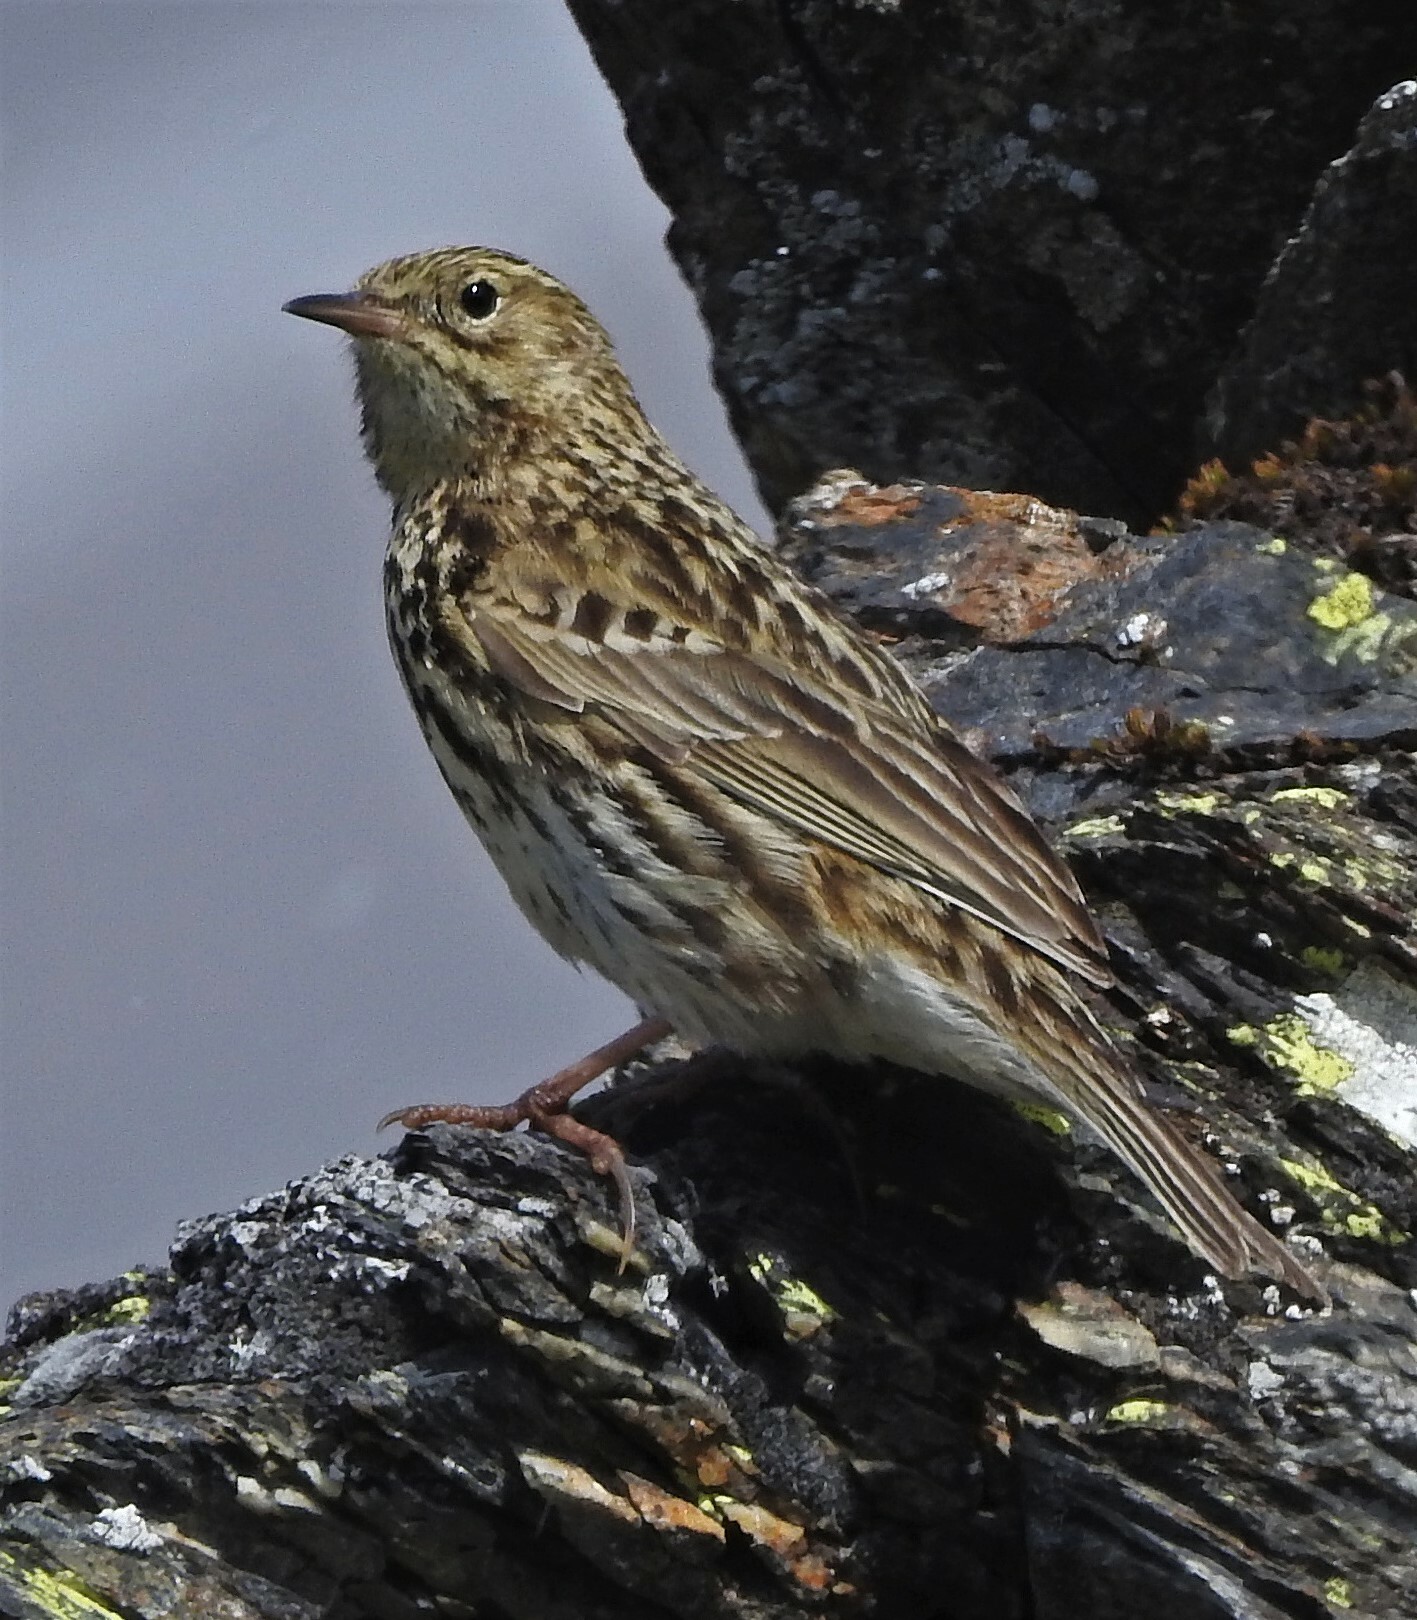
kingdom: Animalia
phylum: Chordata
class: Aves
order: Passeriformes
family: Motacillidae
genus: Anthus
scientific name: Anthus antarcticus
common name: South georgia pipit
